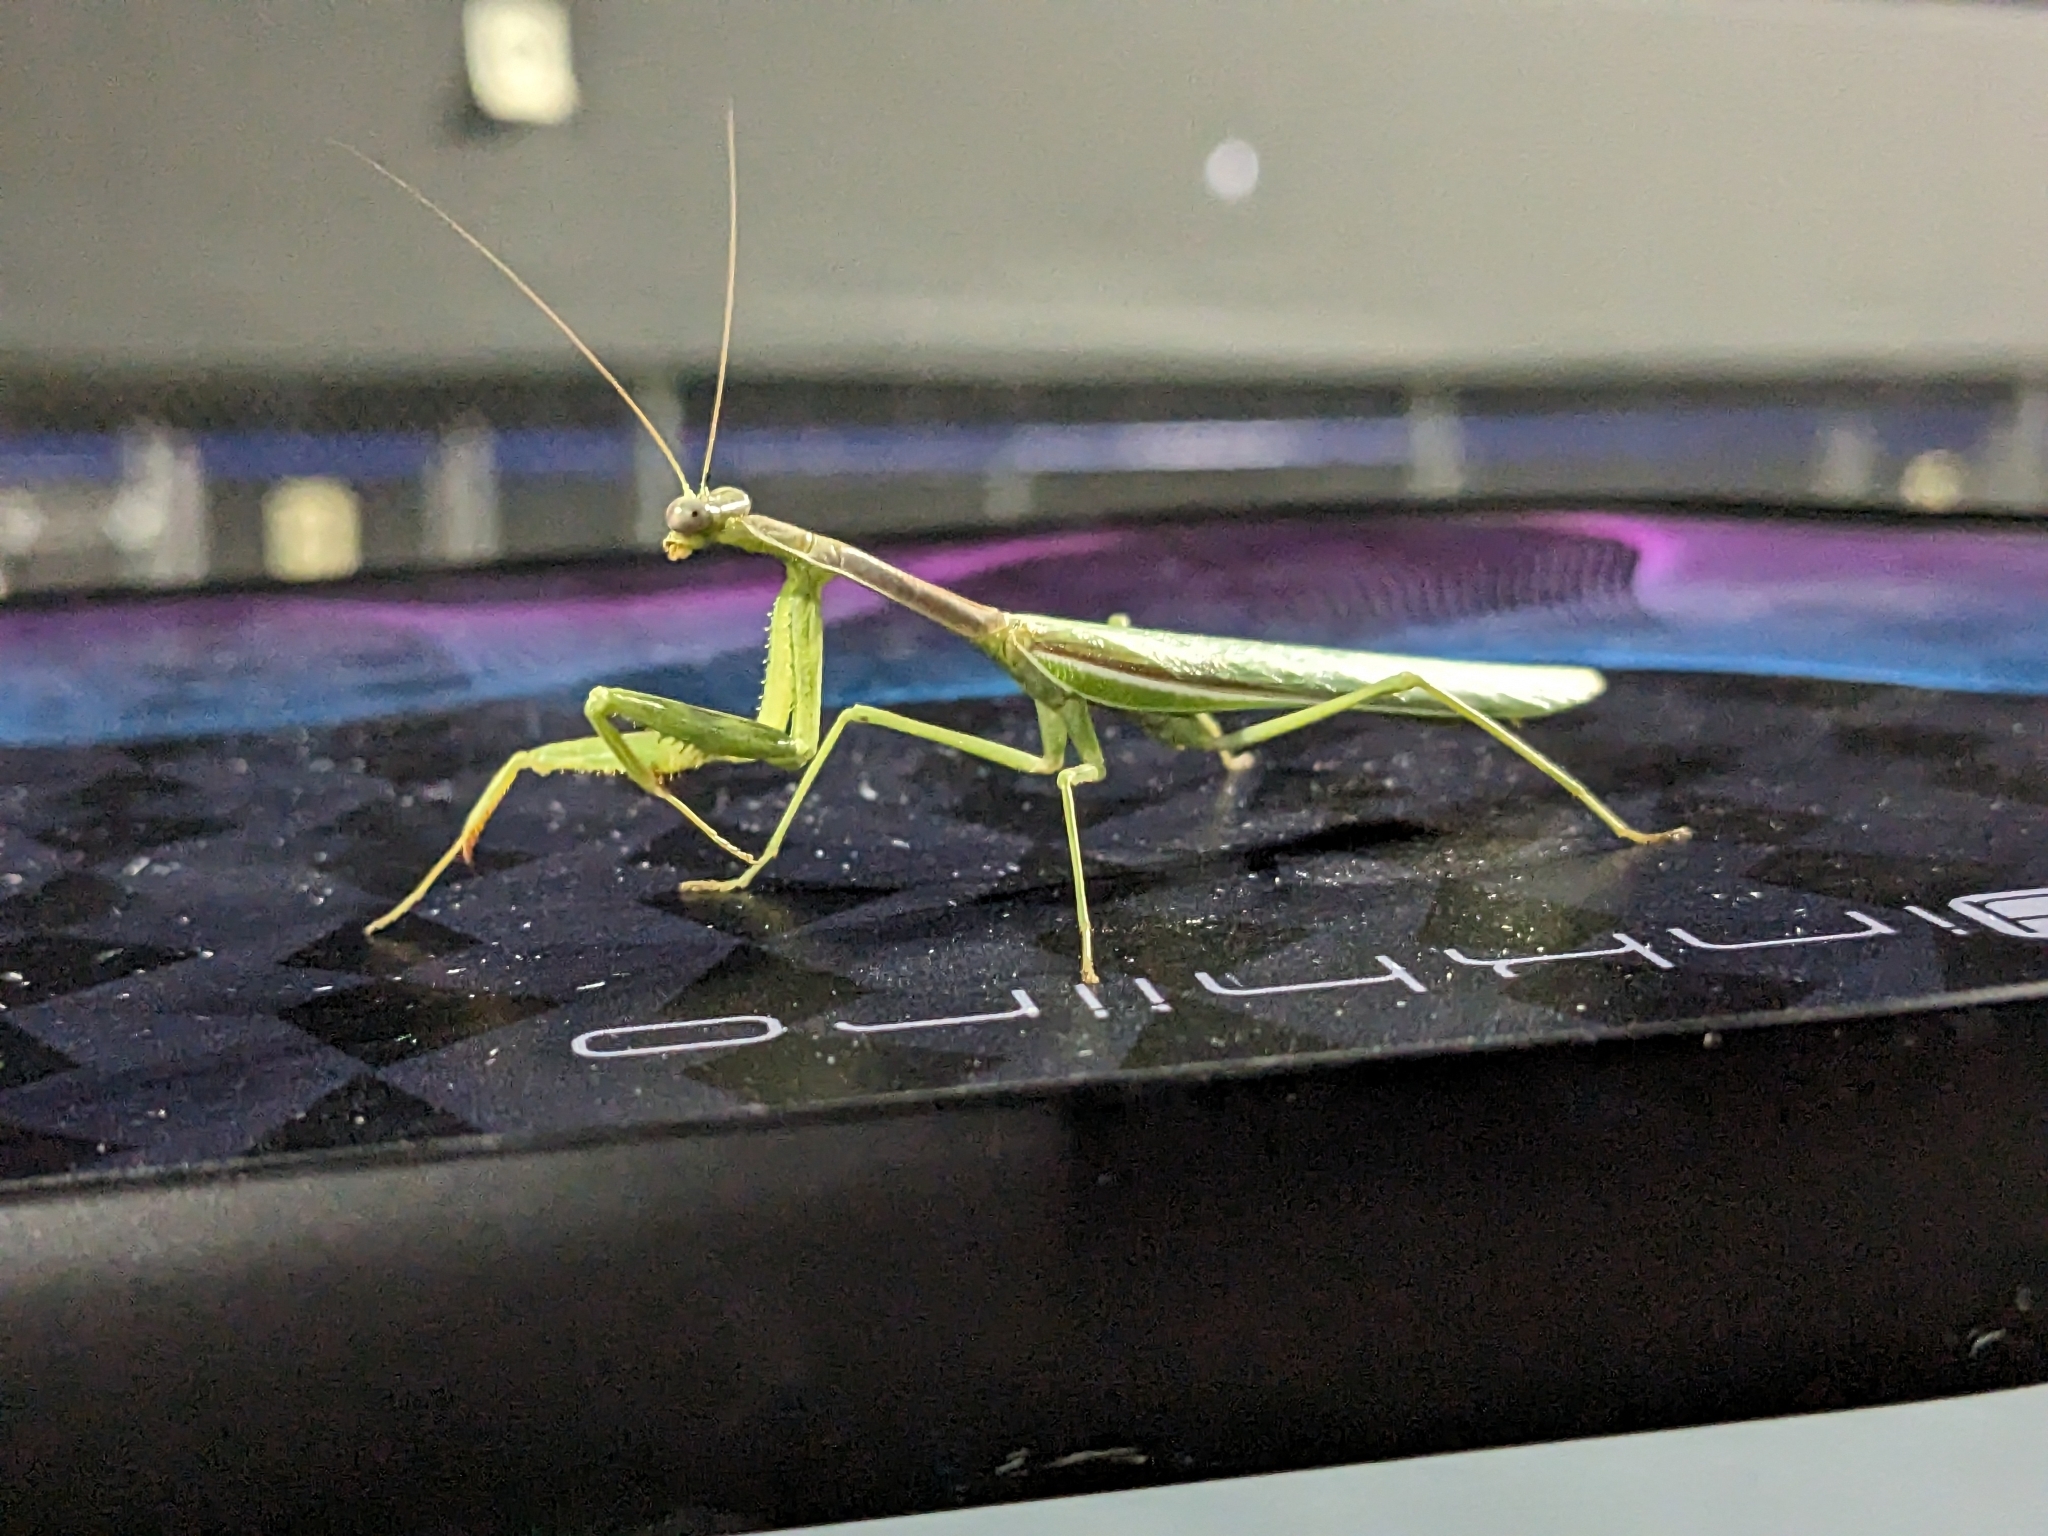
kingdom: Animalia
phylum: Arthropoda
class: Insecta
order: Mantodea
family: Mantidae
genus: Stagmomantis
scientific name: Stagmomantis limbata
